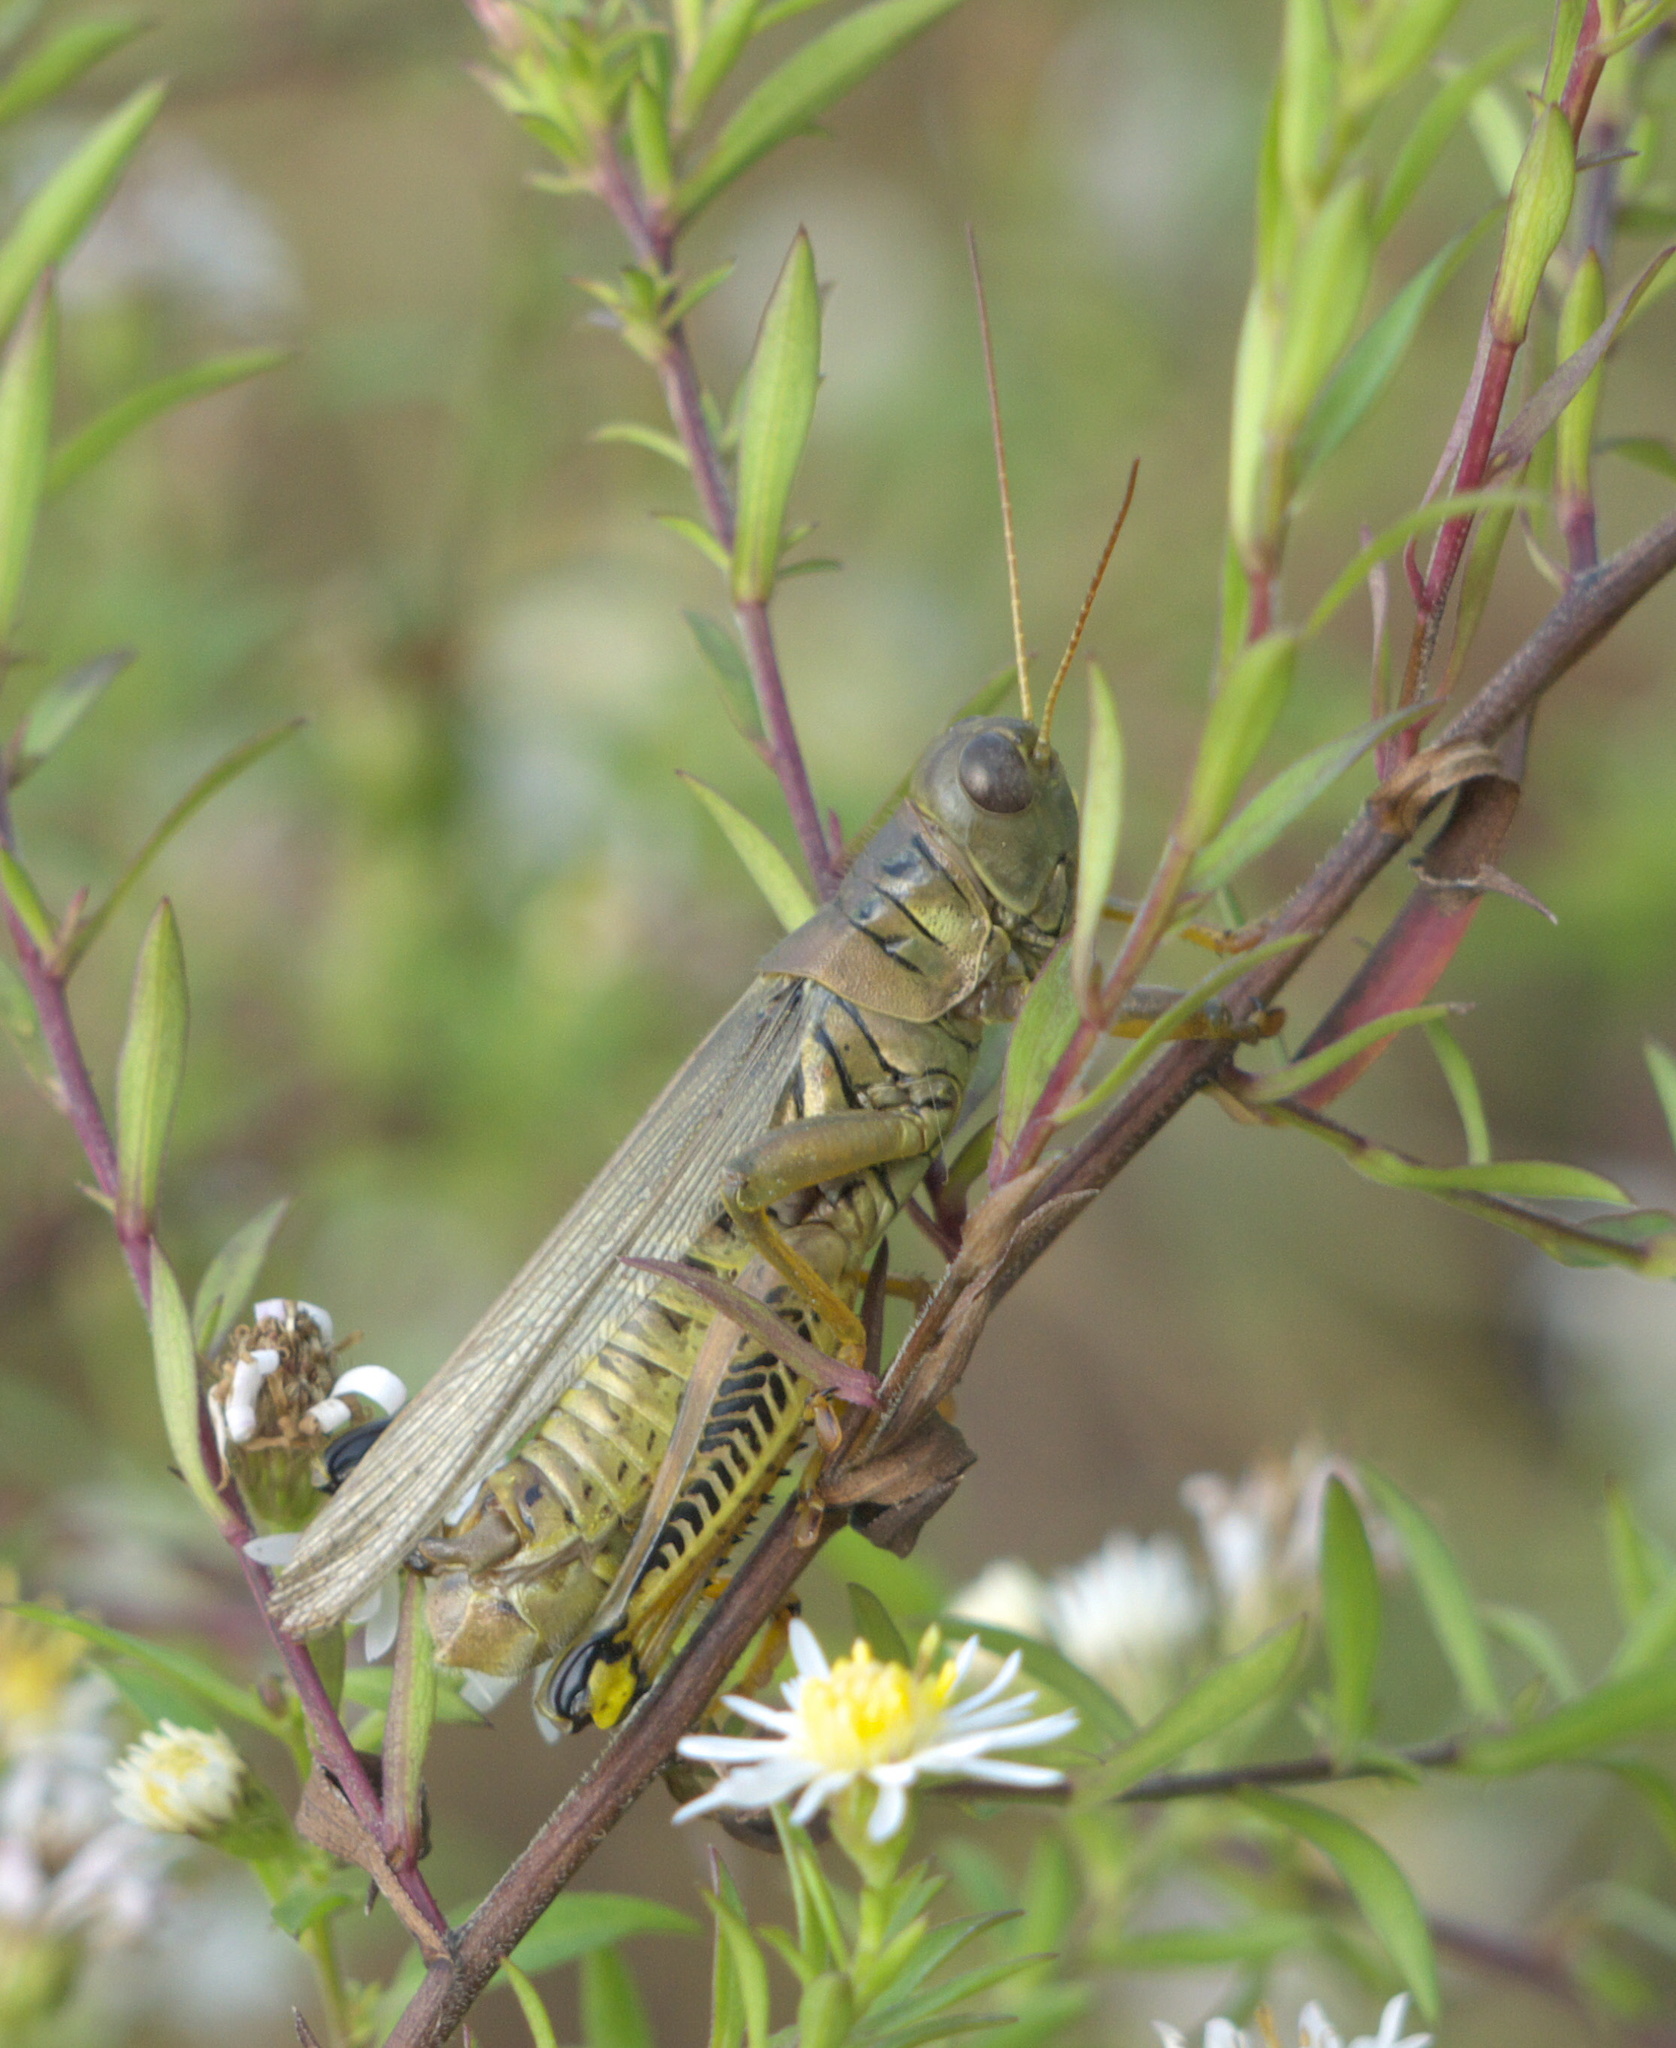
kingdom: Animalia
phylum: Arthropoda
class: Insecta
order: Orthoptera
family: Acrididae
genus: Melanoplus
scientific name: Melanoplus differentialis
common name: Differential grasshopper
